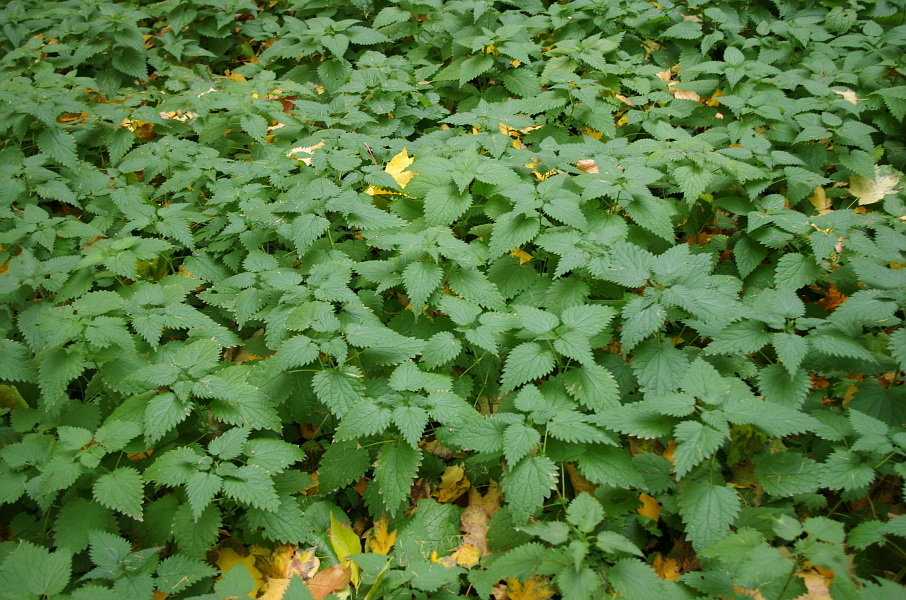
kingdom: Plantae
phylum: Tracheophyta
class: Magnoliopsida
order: Rosales
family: Urticaceae
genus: Urtica
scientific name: Urtica dioica
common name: Common nettle
